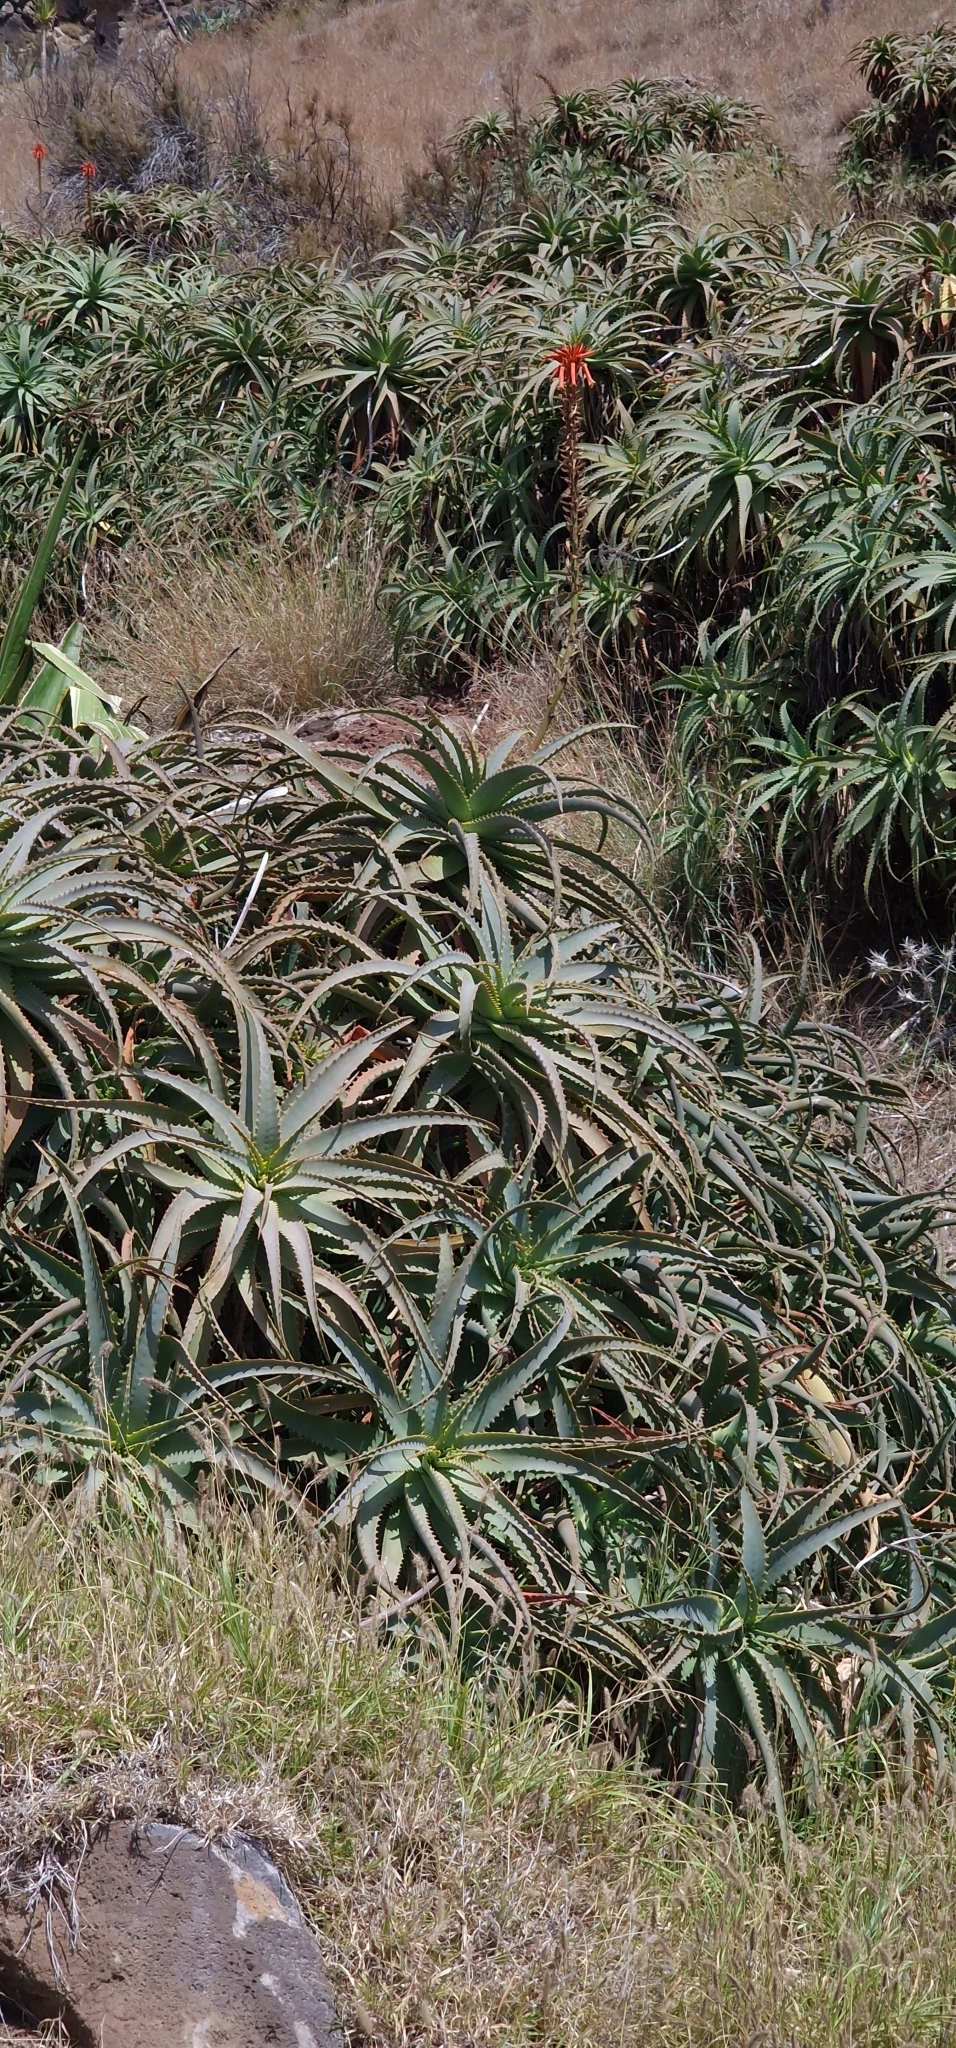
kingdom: Plantae
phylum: Tracheophyta
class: Liliopsida
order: Asparagales
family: Asphodelaceae
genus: Aloe
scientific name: Aloe arborescens
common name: Candelabra aloe
